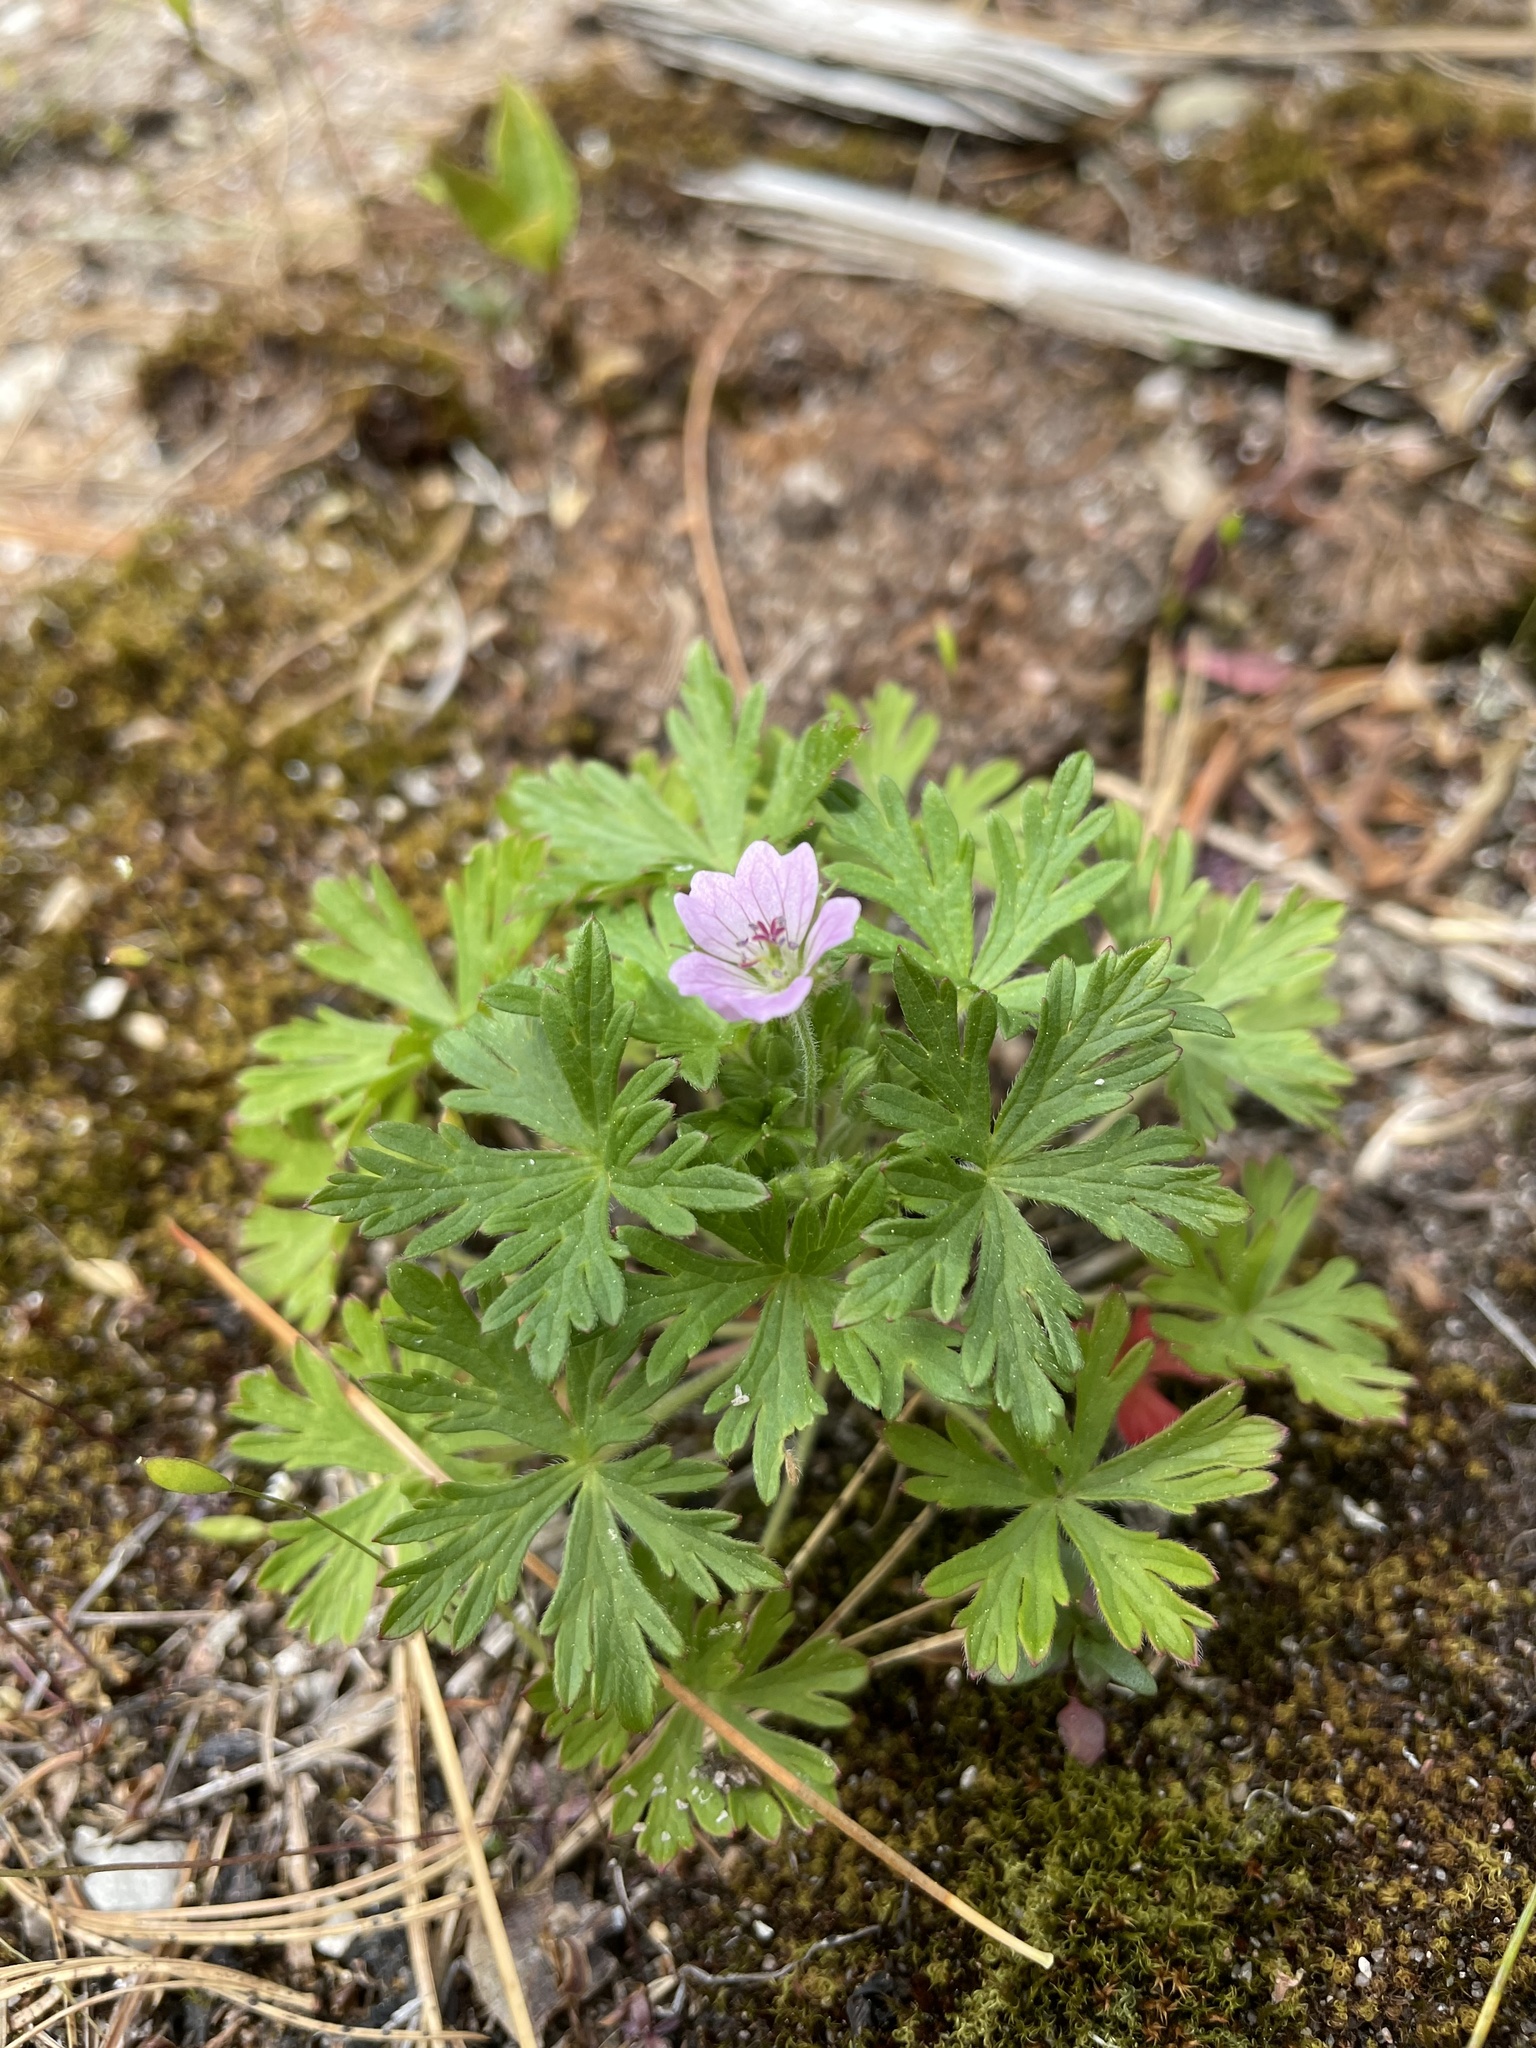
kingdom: Plantae
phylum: Tracheophyta
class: Magnoliopsida
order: Geraniales
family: Geraniaceae
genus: Geranium
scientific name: Geranium robertianum
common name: Herb-robert
